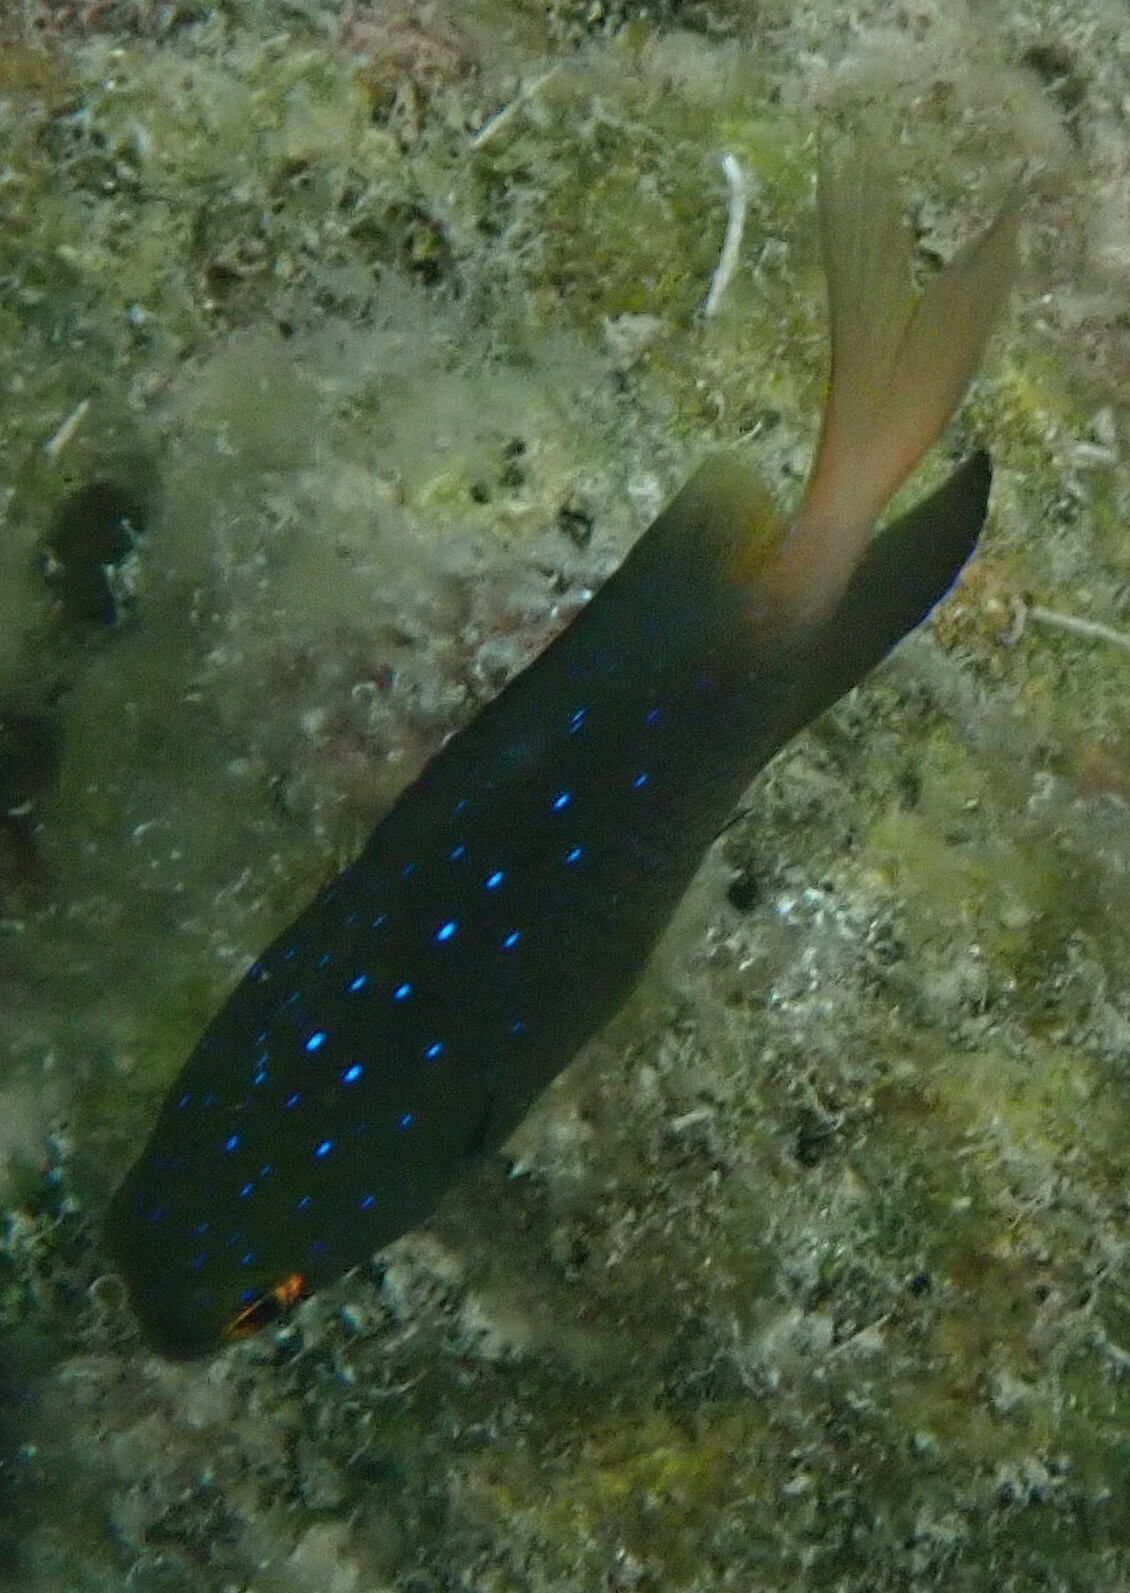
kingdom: Animalia
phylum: Chordata
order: Perciformes
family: Pomacentridae
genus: Plectroglyphidodon
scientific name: Plectroglyphidodon lacrymatus
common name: Jewel damsel
